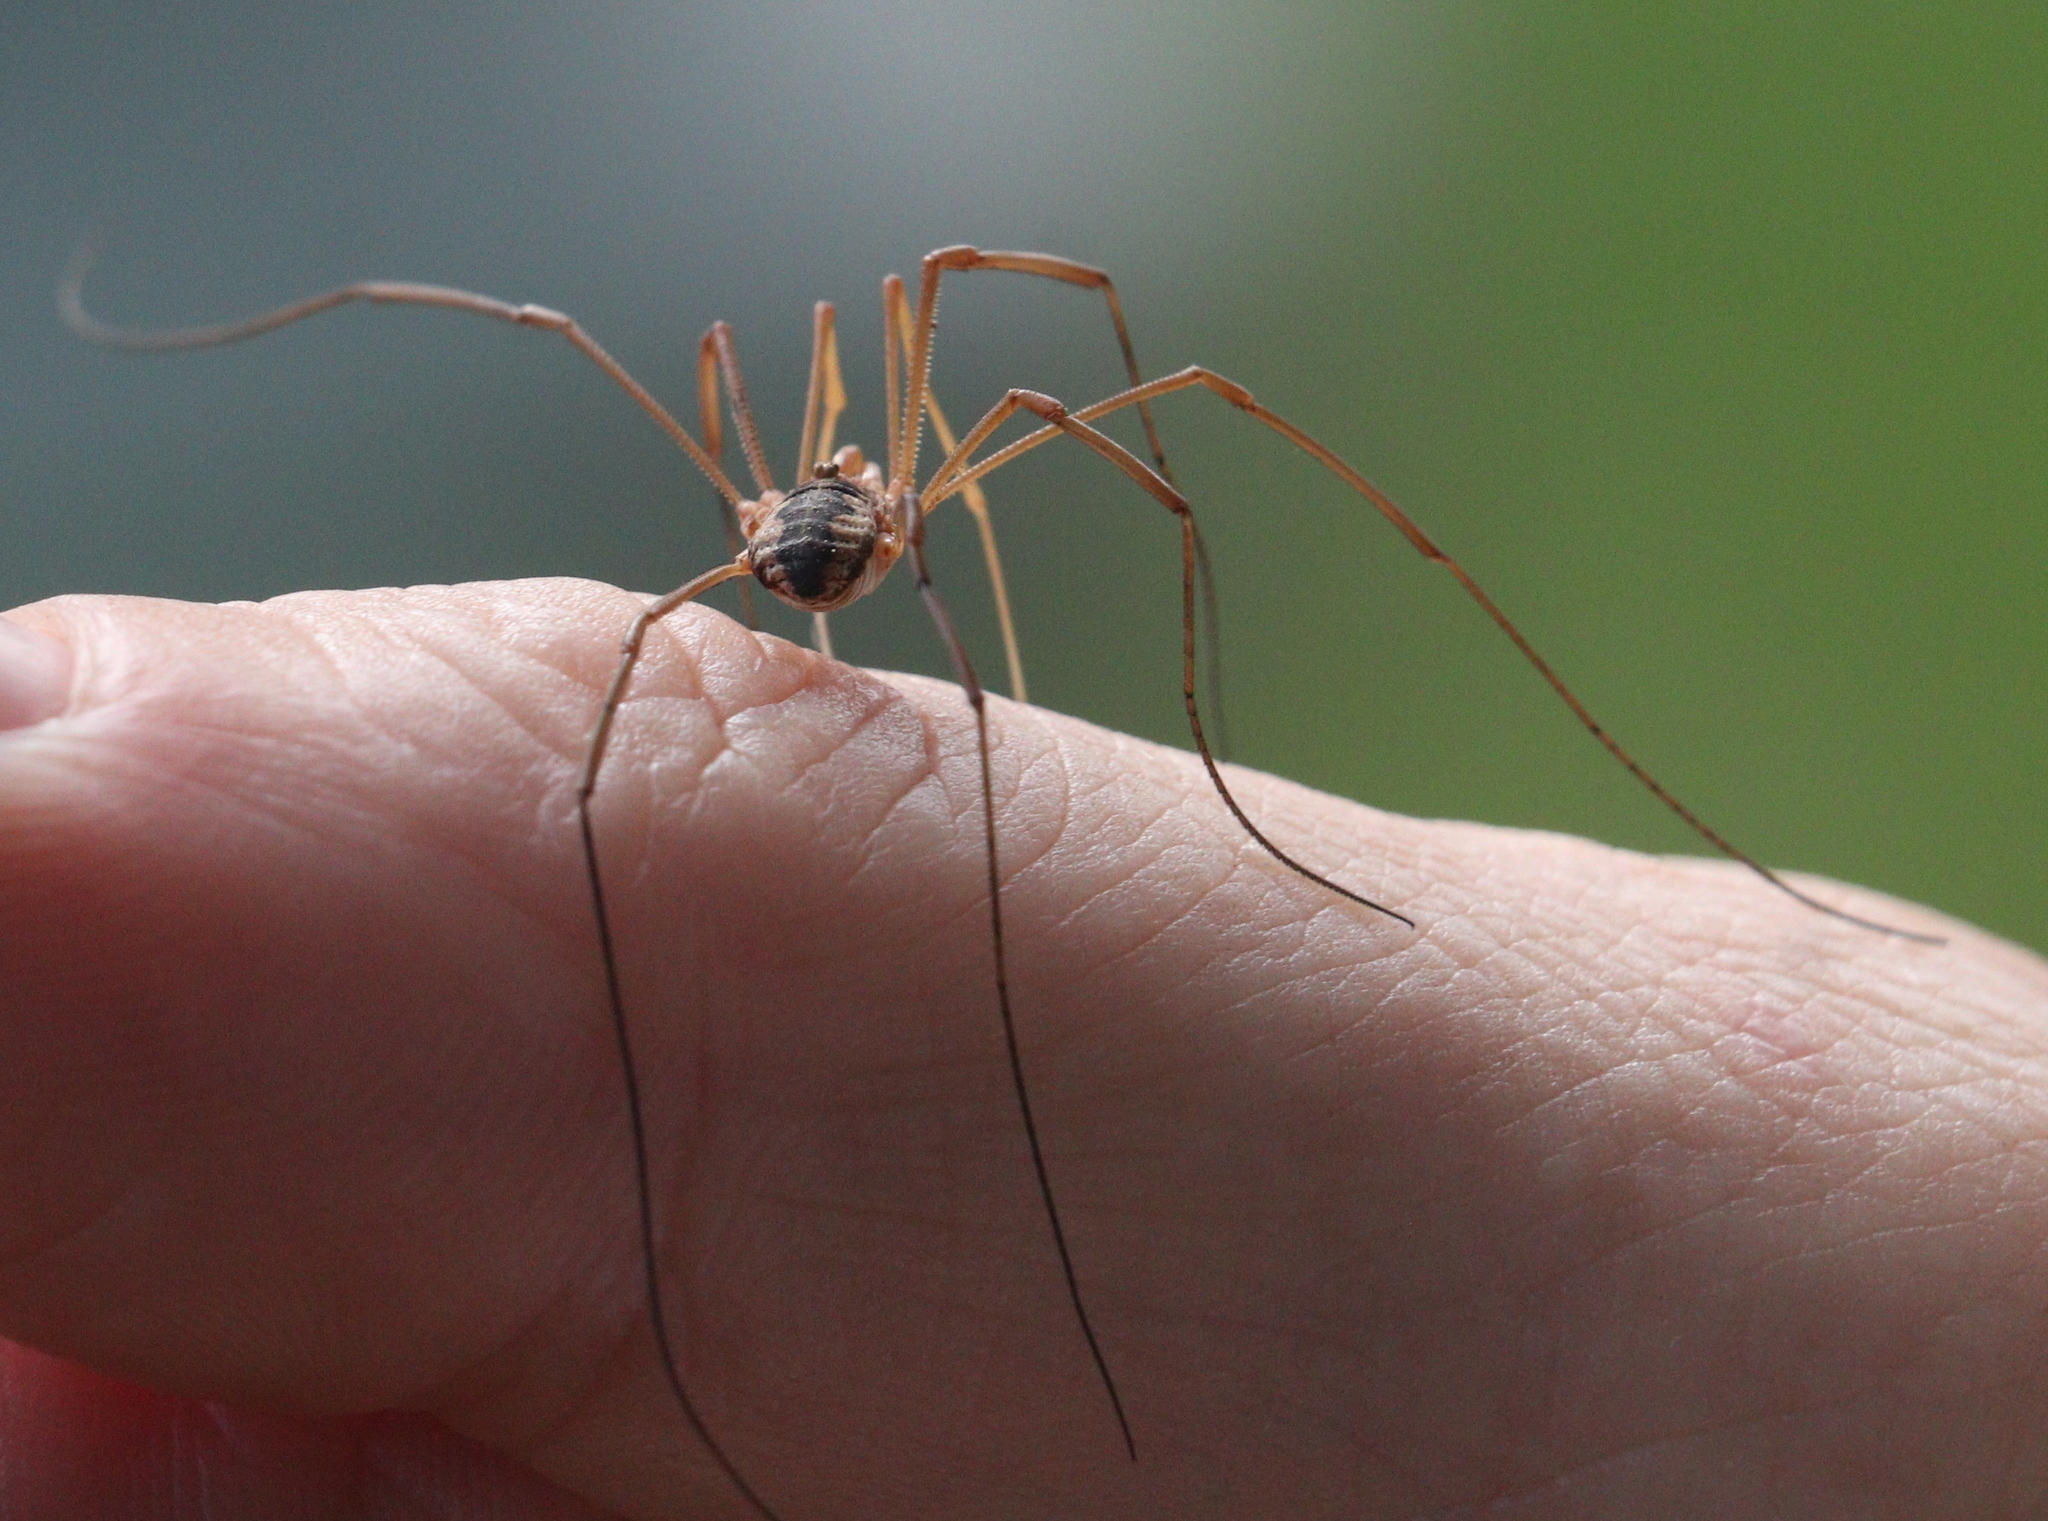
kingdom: Animalia
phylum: Arthropoda
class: Arachnida
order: Opiliones
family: Phalangiidae
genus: Phalangium
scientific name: Phalangium opilio
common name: Daddy longleg
